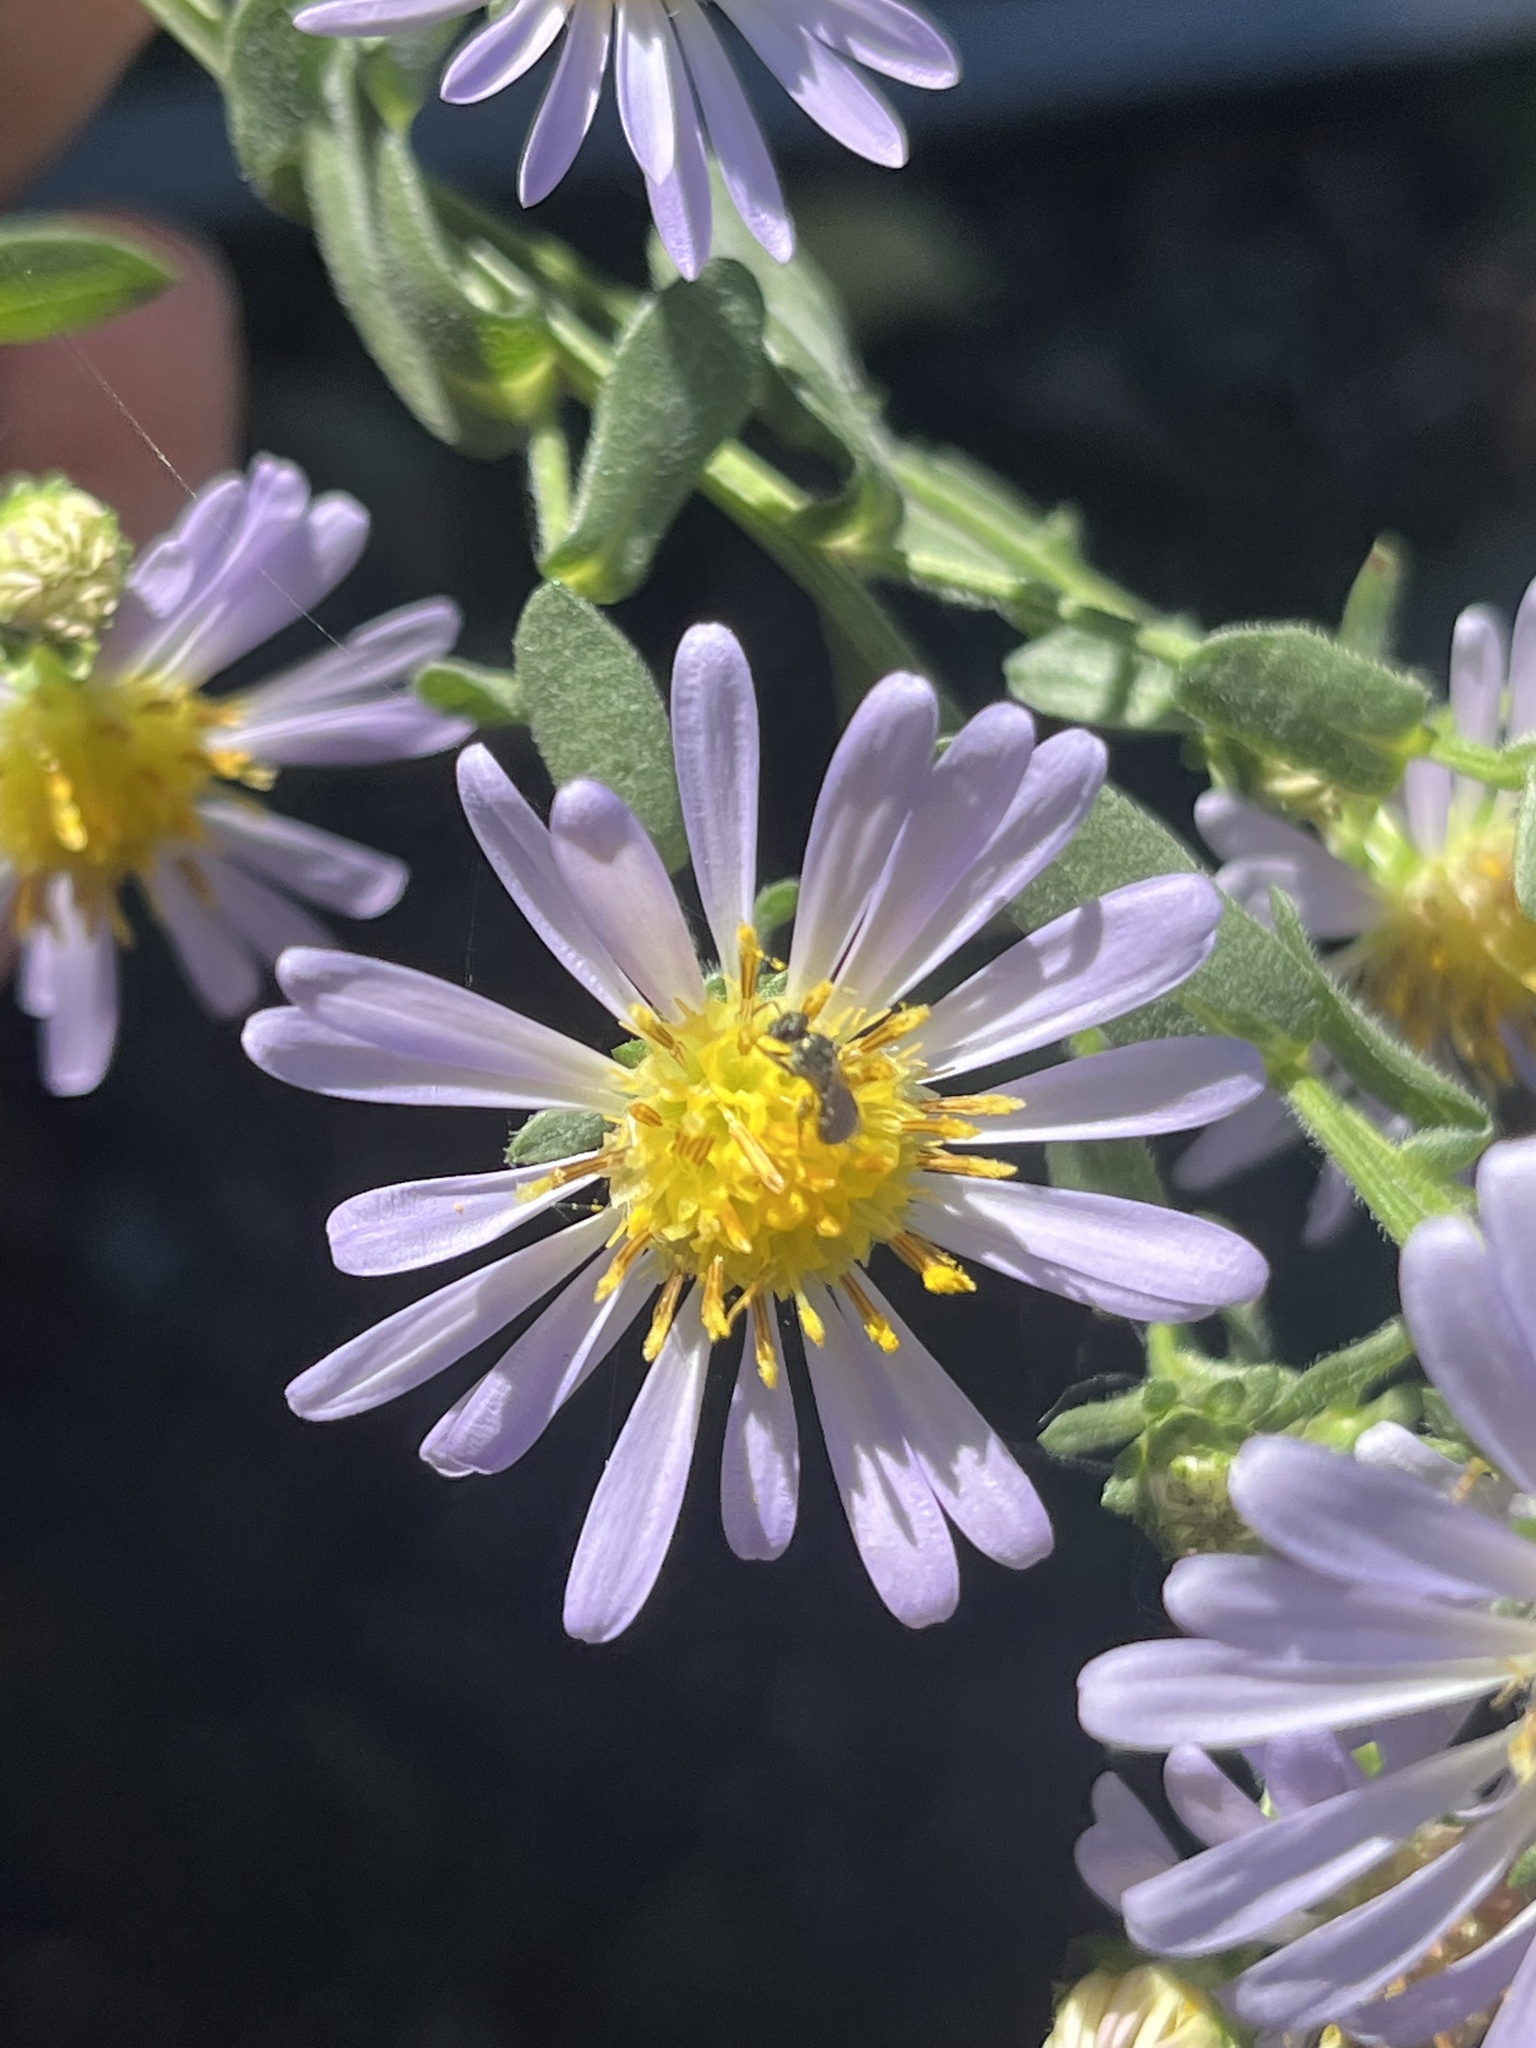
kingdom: Animalia
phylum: Arthropoda
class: Insecta
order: Hymenoptera
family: Halictidae
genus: Dialictus
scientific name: Dialictus
